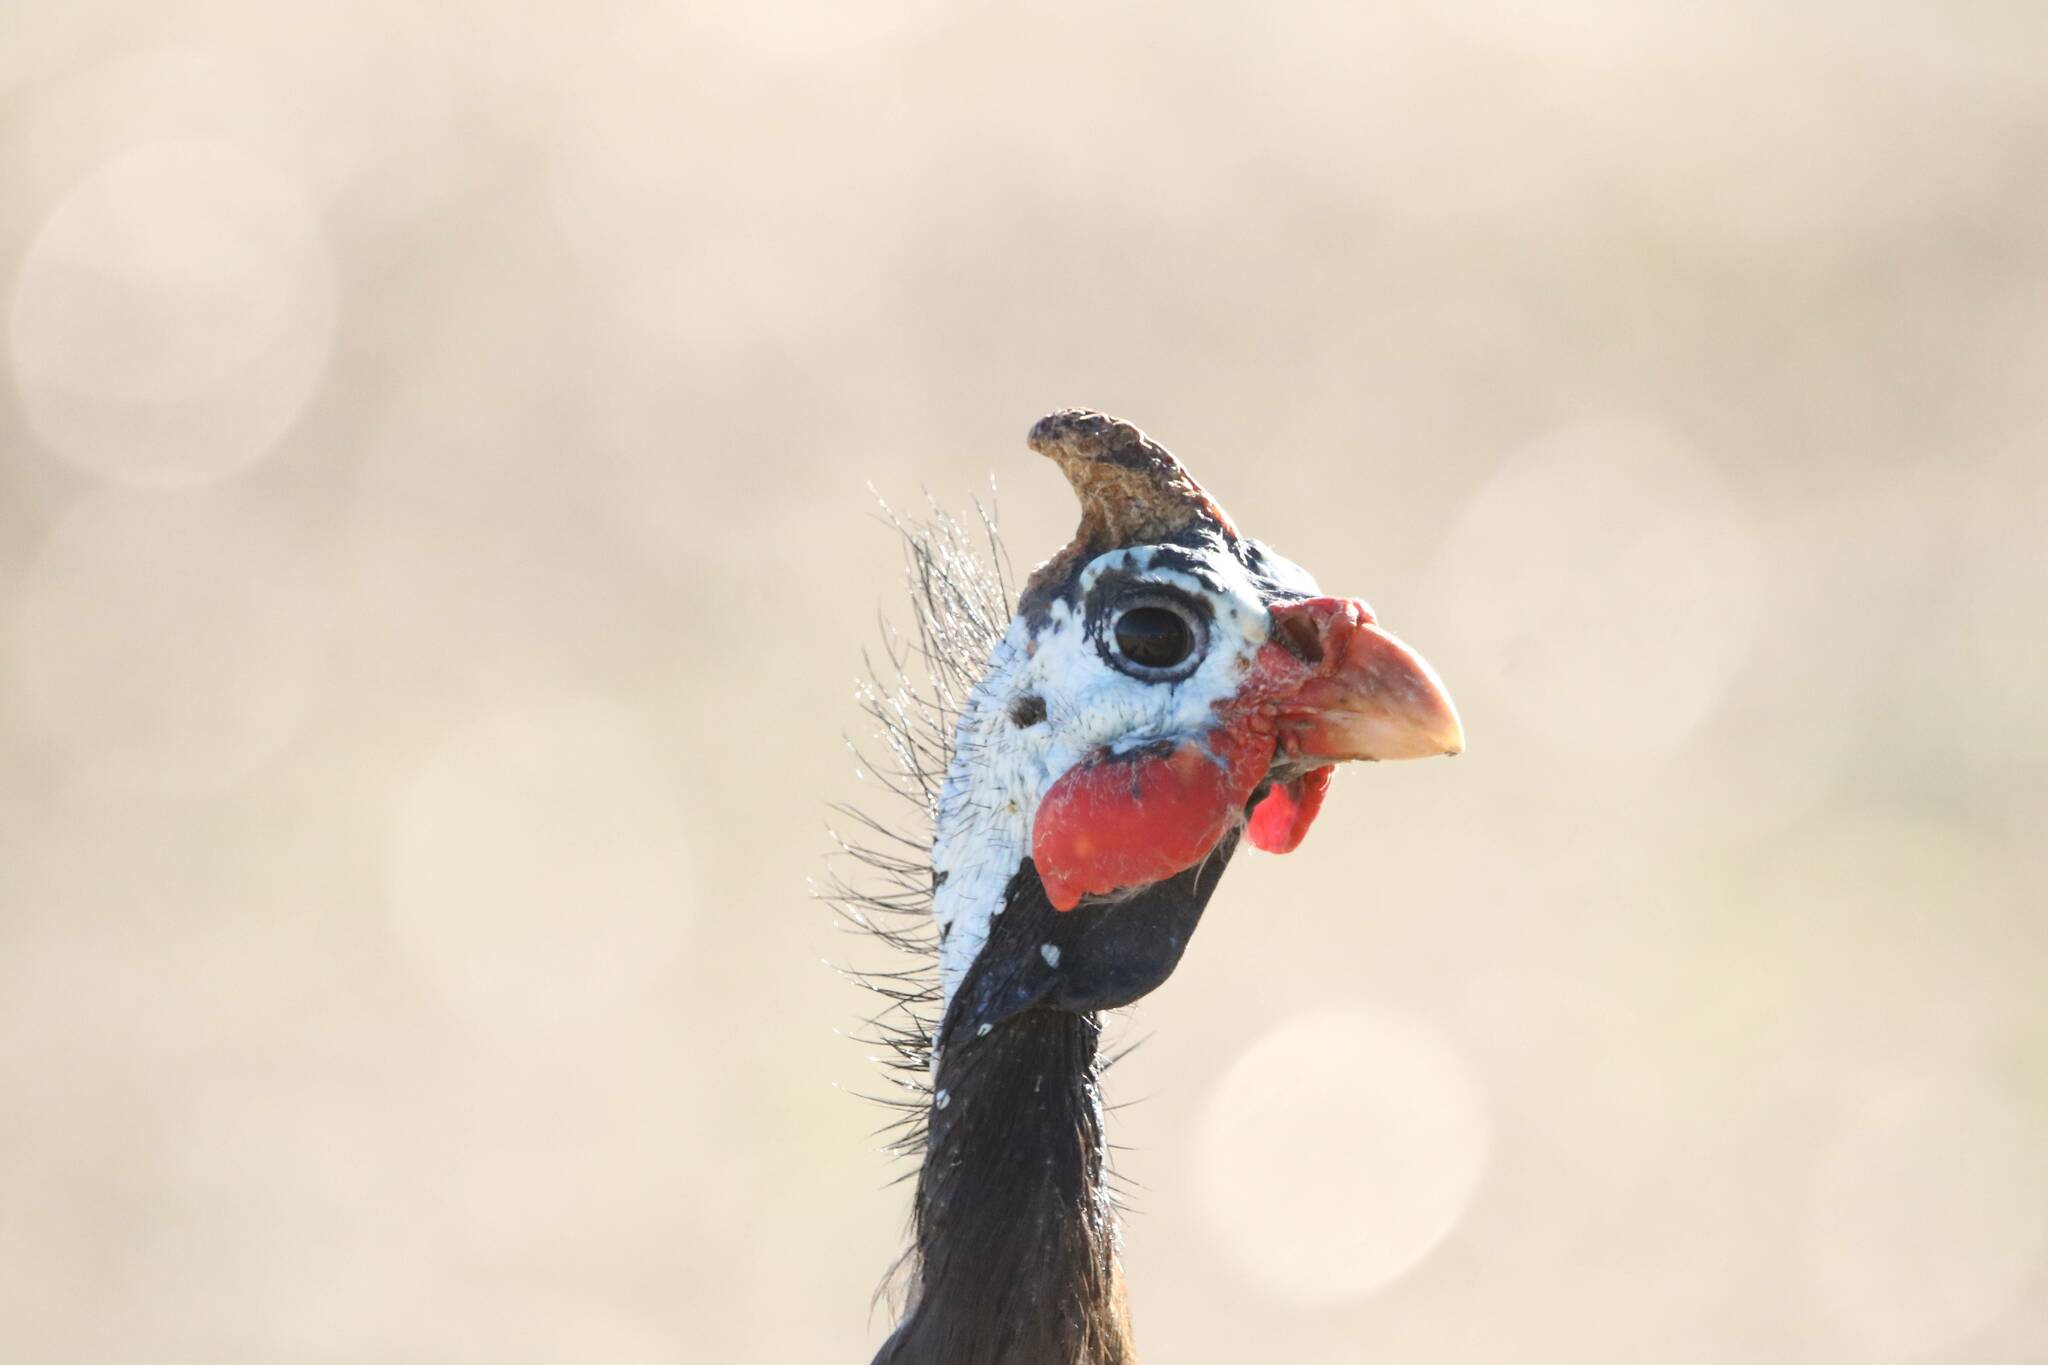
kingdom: Animalia
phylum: Chordata
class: Aves
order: Galliformes
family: Numididae
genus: Numida
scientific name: Numida meleagris
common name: Helmeted guineafowl
